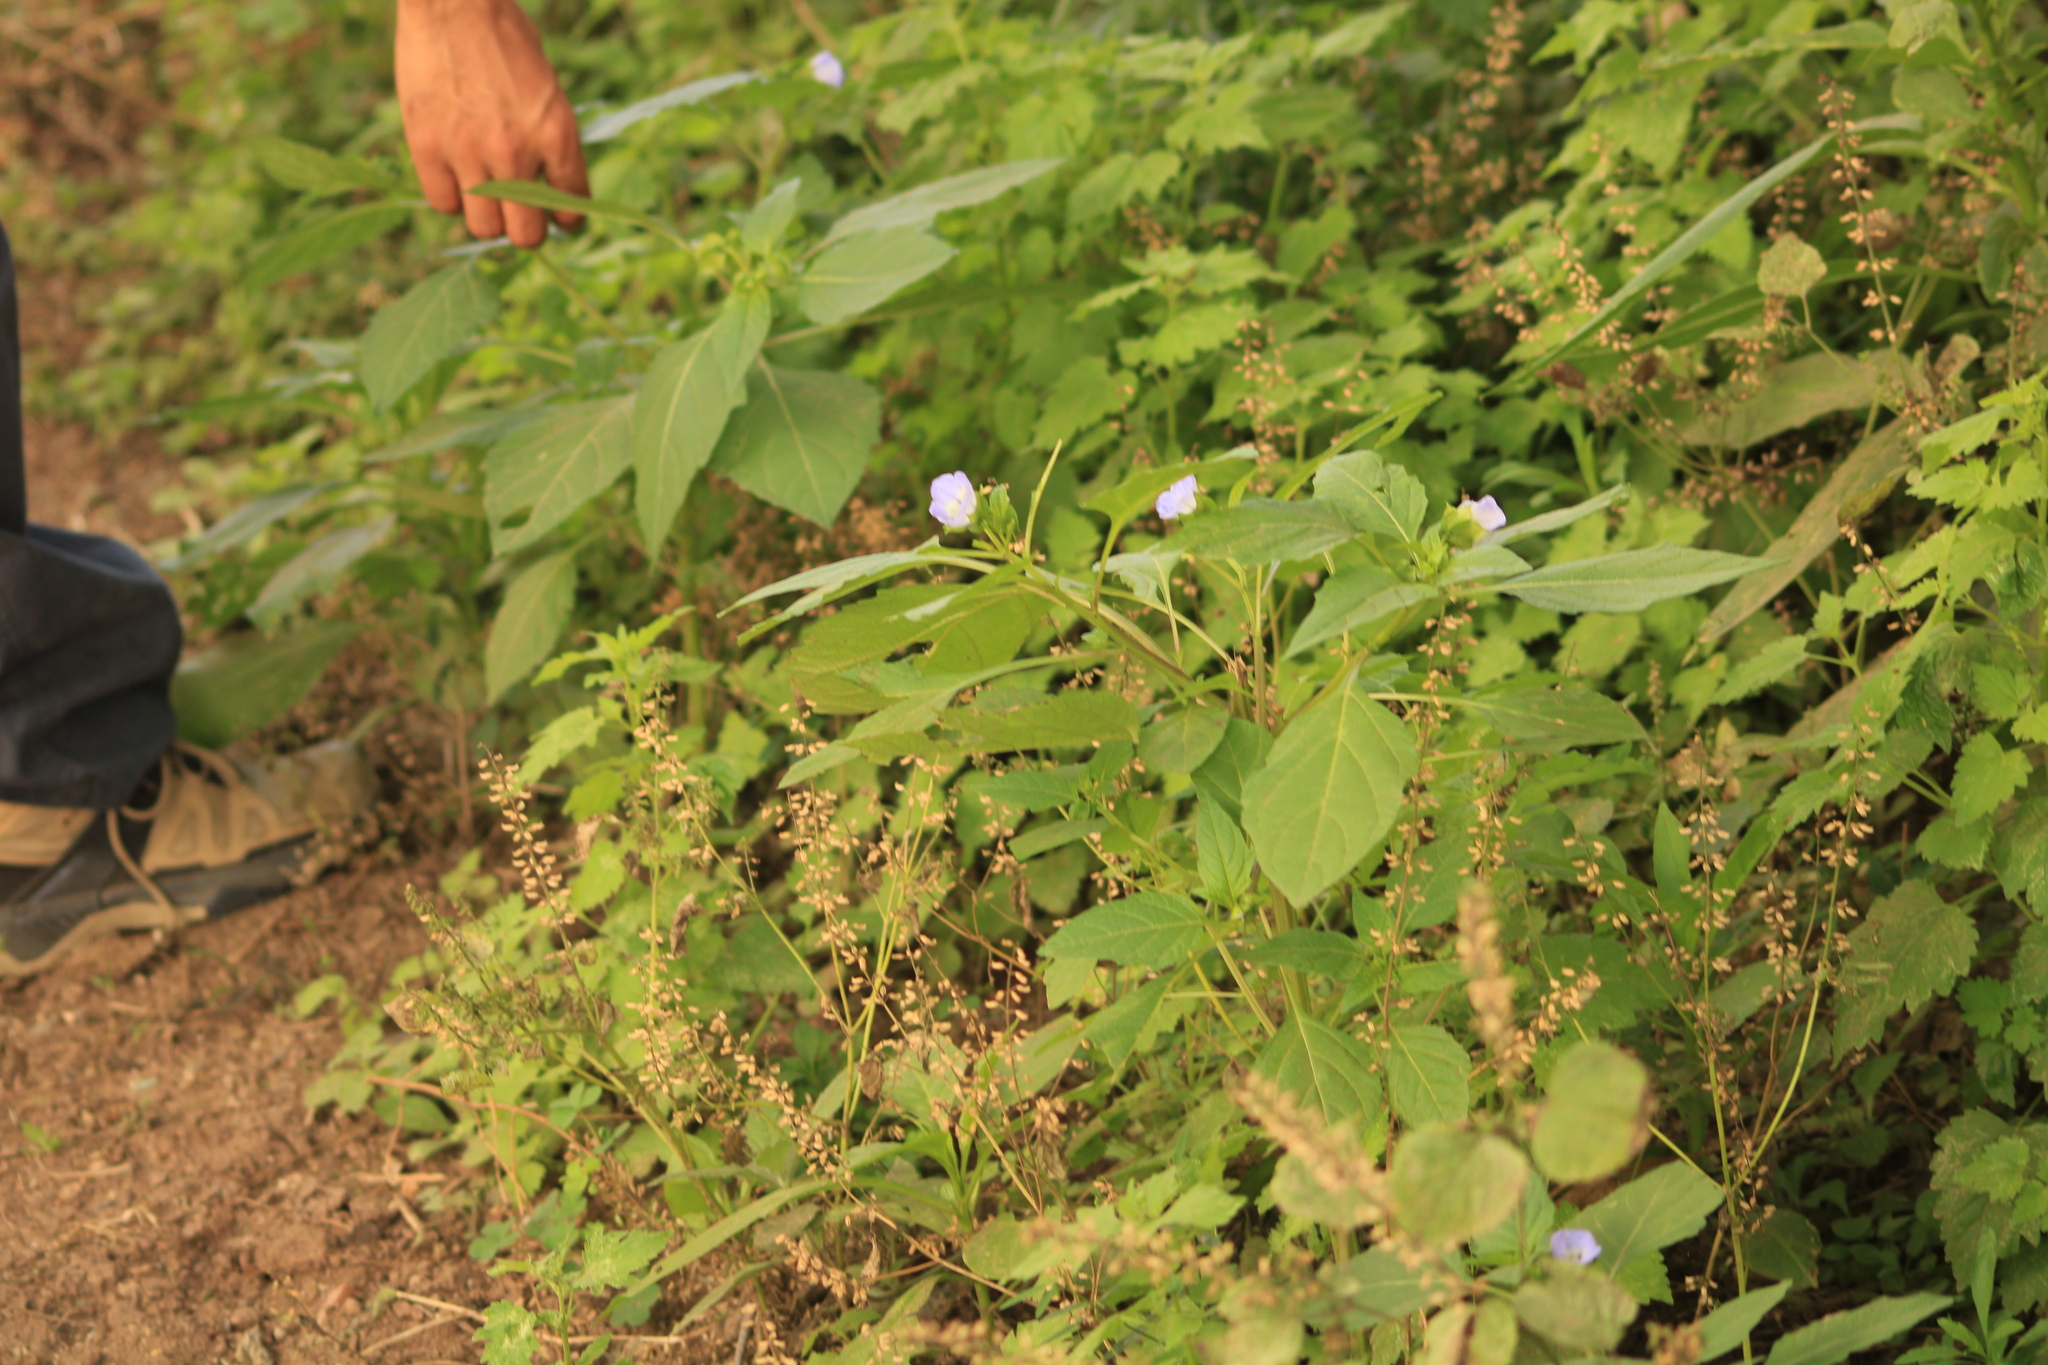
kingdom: Plantae
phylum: Tracheophyta
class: Magnoliopsida
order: Solanales
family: Solanaceae
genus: Nicandra
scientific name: Nicandra physalodes
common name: Apple-of-peru
